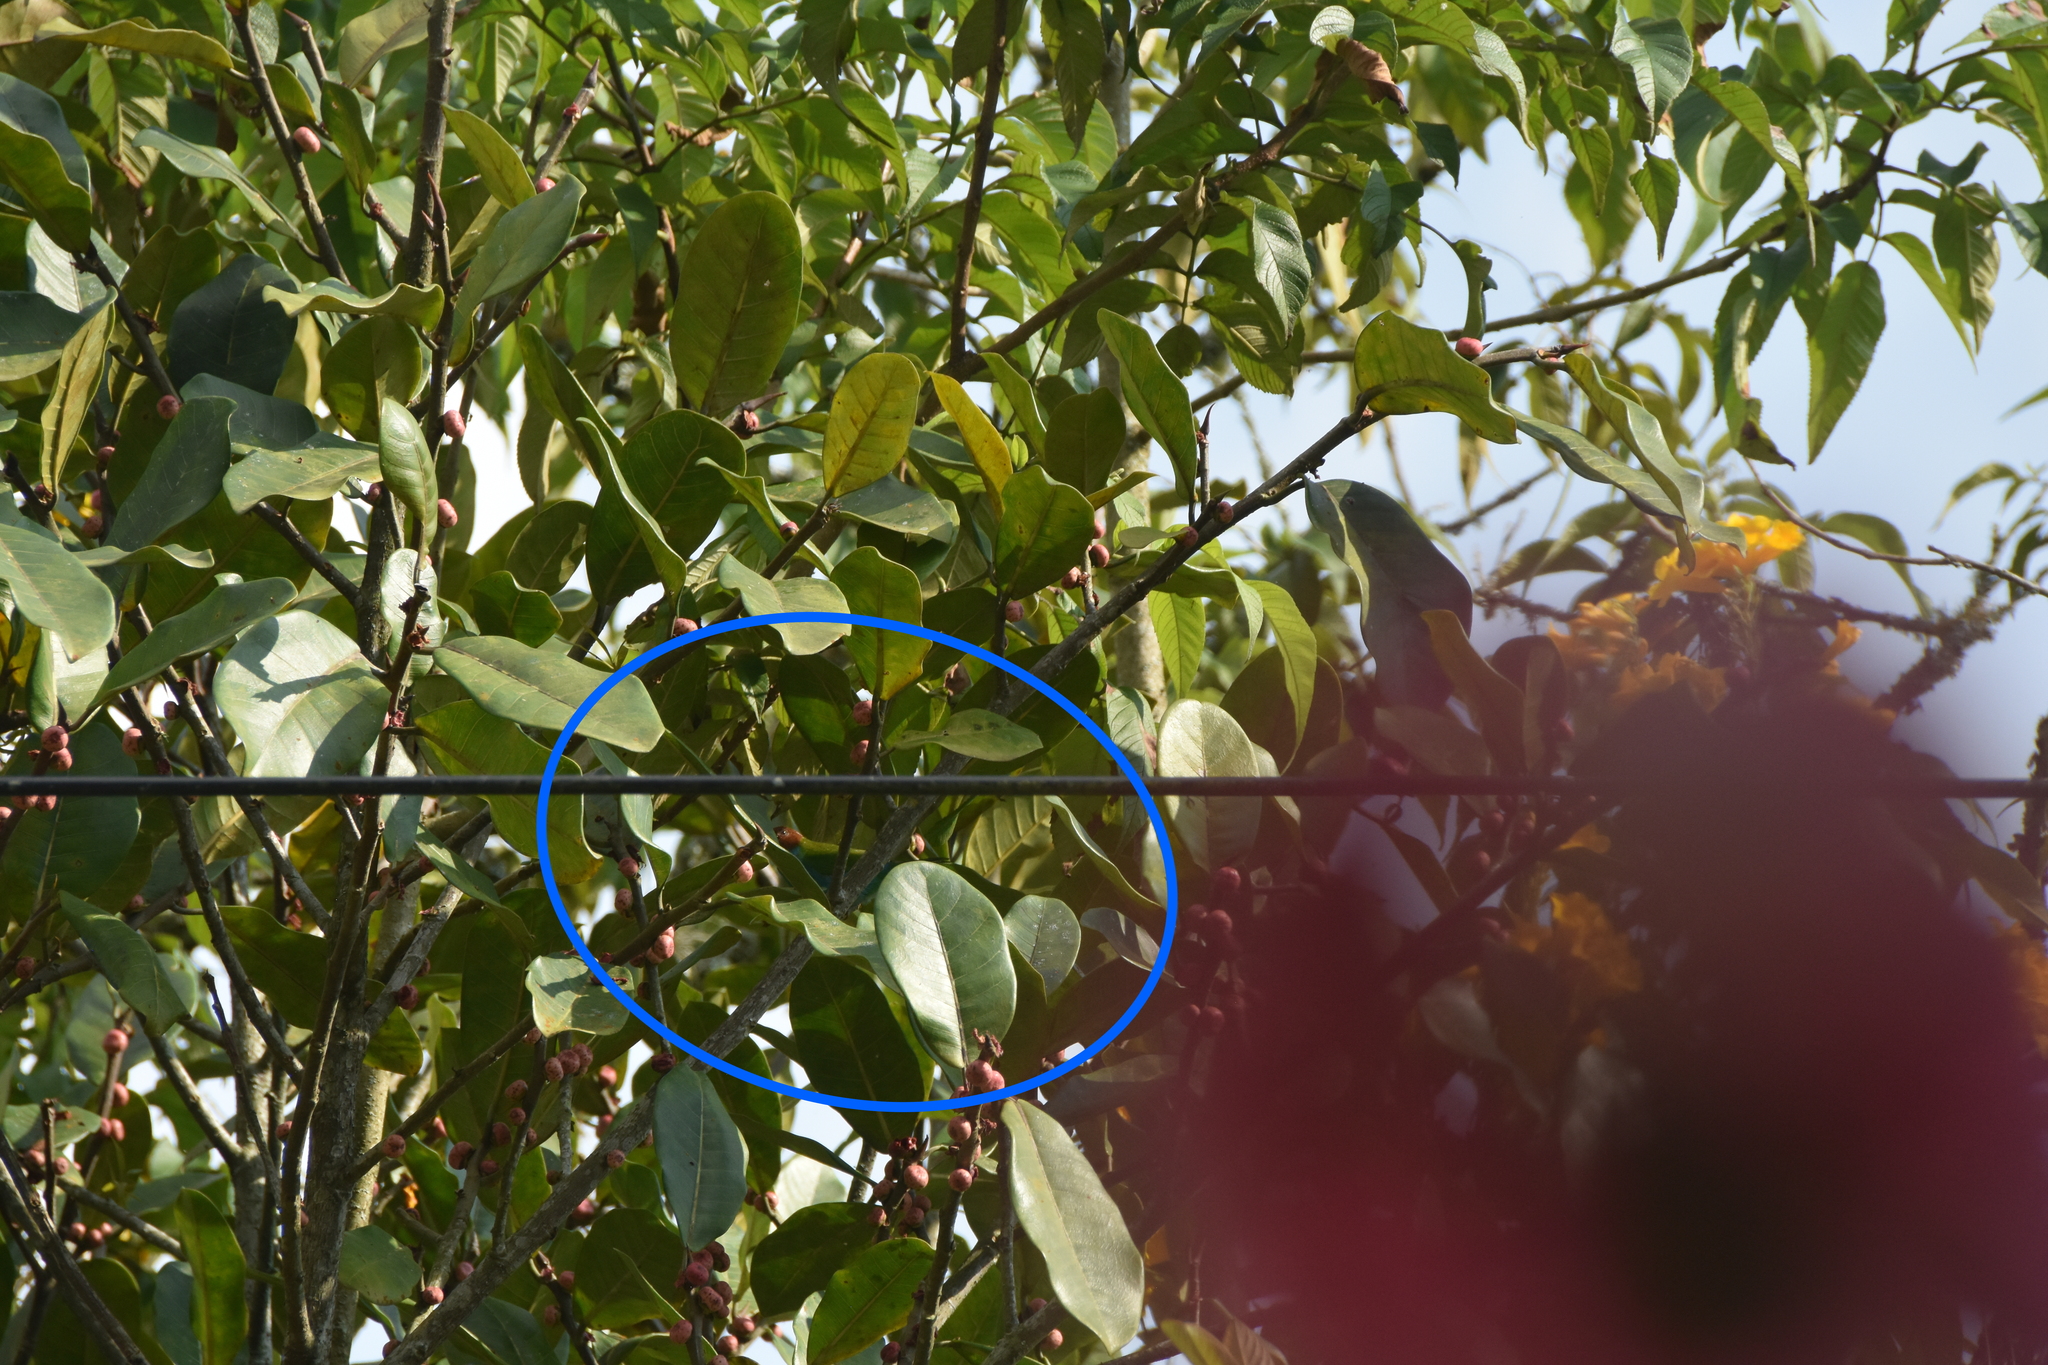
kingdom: Animalia
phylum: Chordata
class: Aves
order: Passeriformes
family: Thraupidae
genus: Tangara
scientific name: Tangara gyrola
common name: Bay-headed tanager
